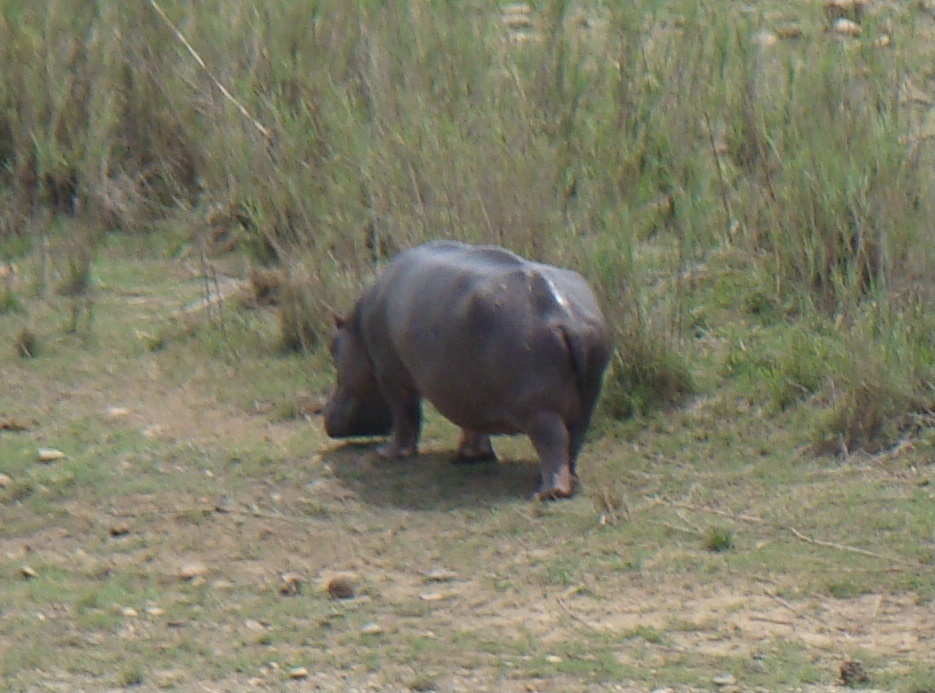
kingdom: Animalia
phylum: Chordata
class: Mammalia
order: Artiodactyla
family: Hippopotamidae
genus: Hippopotamus
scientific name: Hippopotamus amphibius
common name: Common hippopotamus
